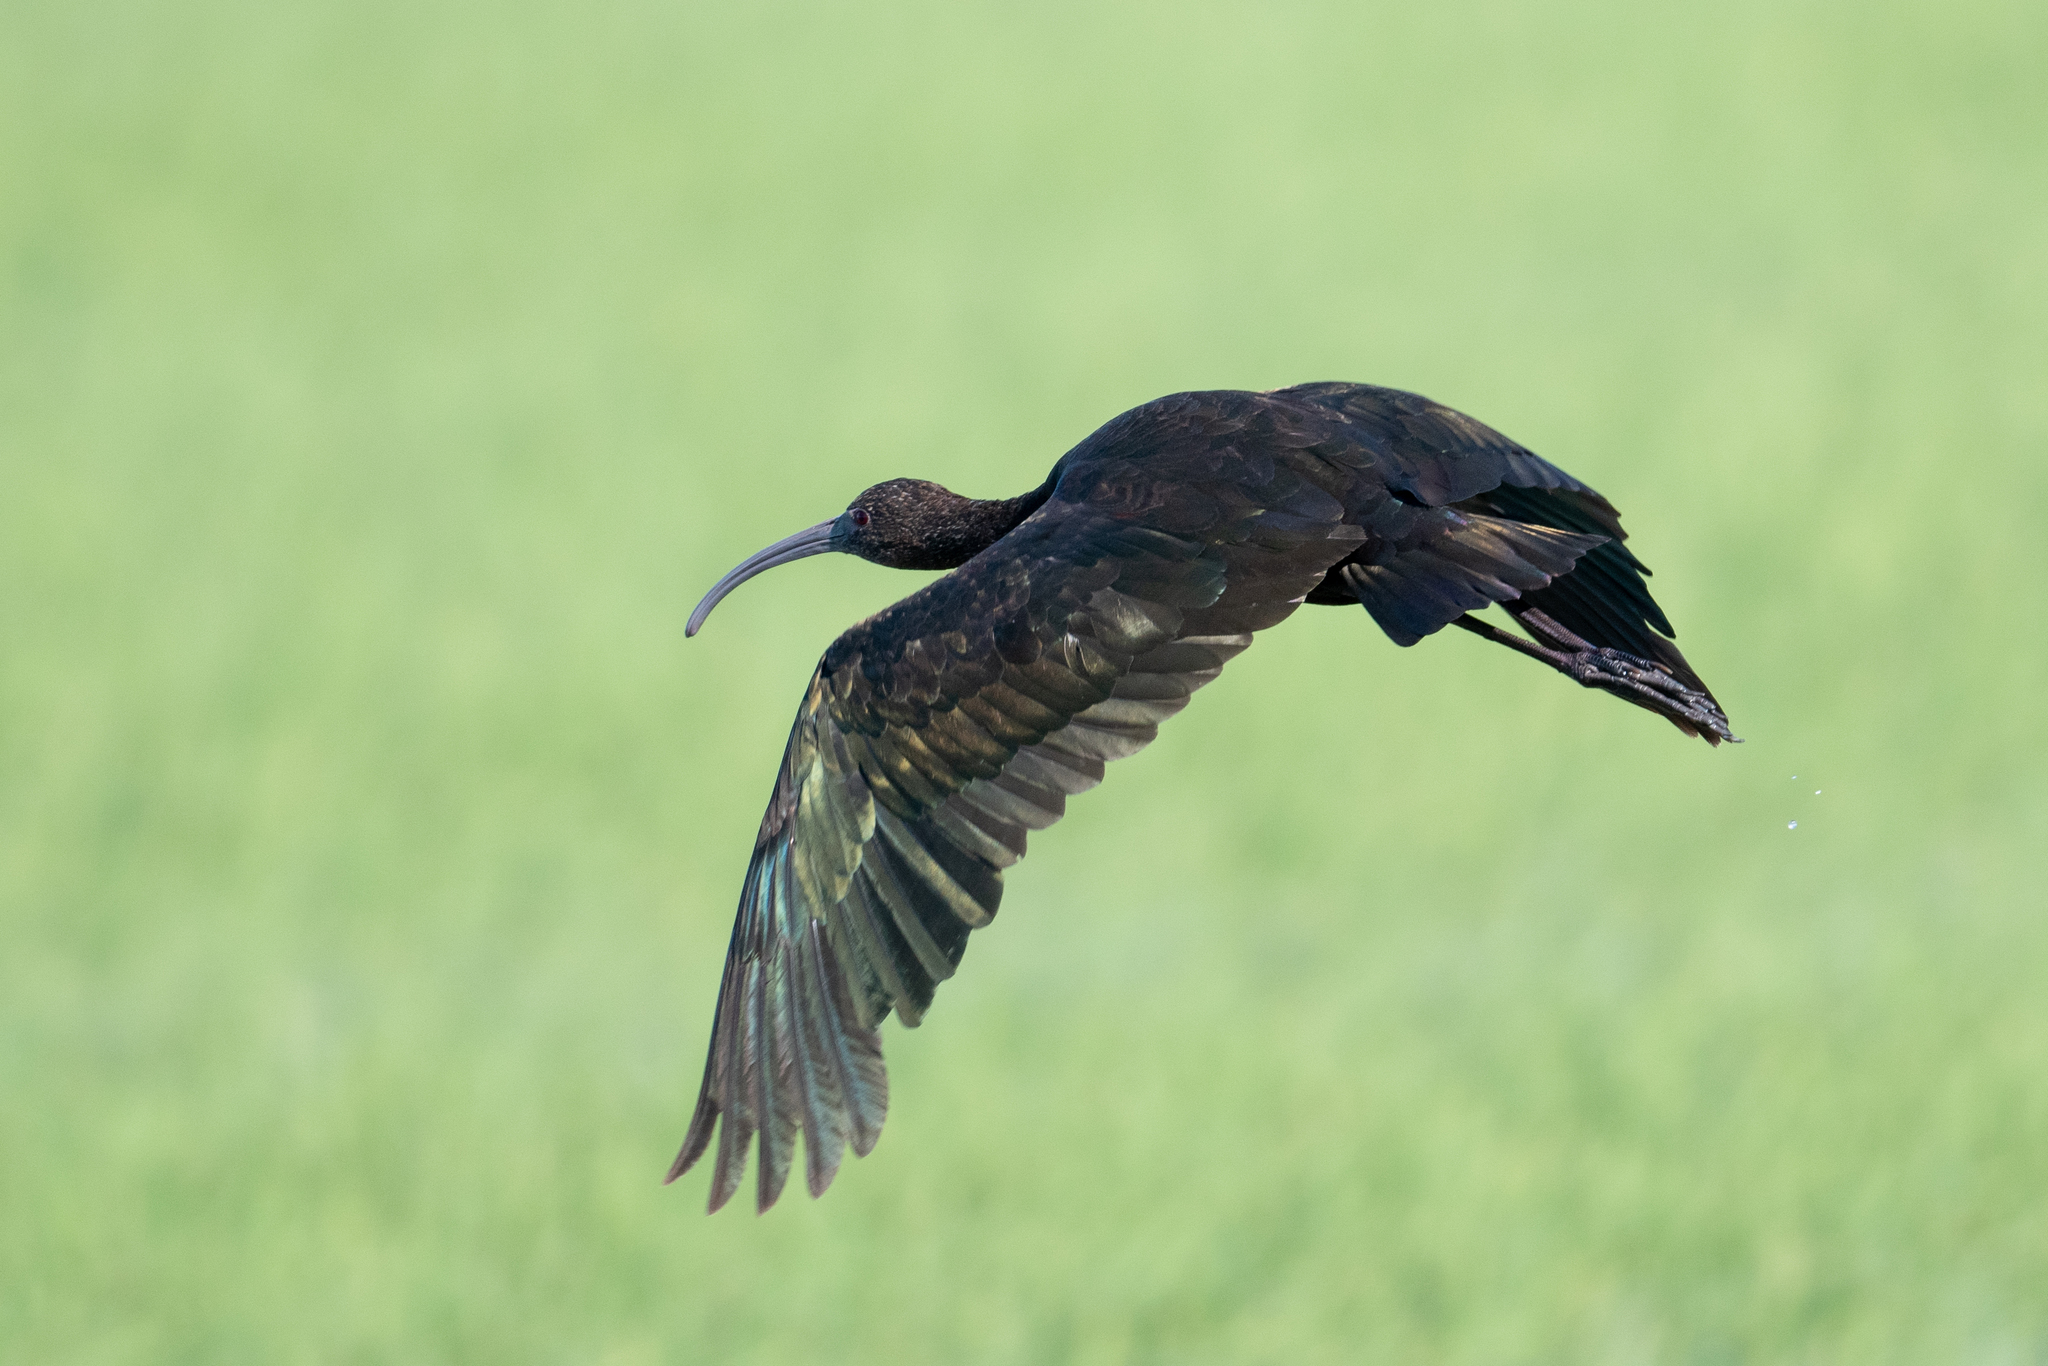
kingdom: Animalia
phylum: Chordata
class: Aves
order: Pelecaniformes
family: Threskiornithidae
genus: Plegadis
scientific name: Plegadis chihi
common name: White-faced ibis
